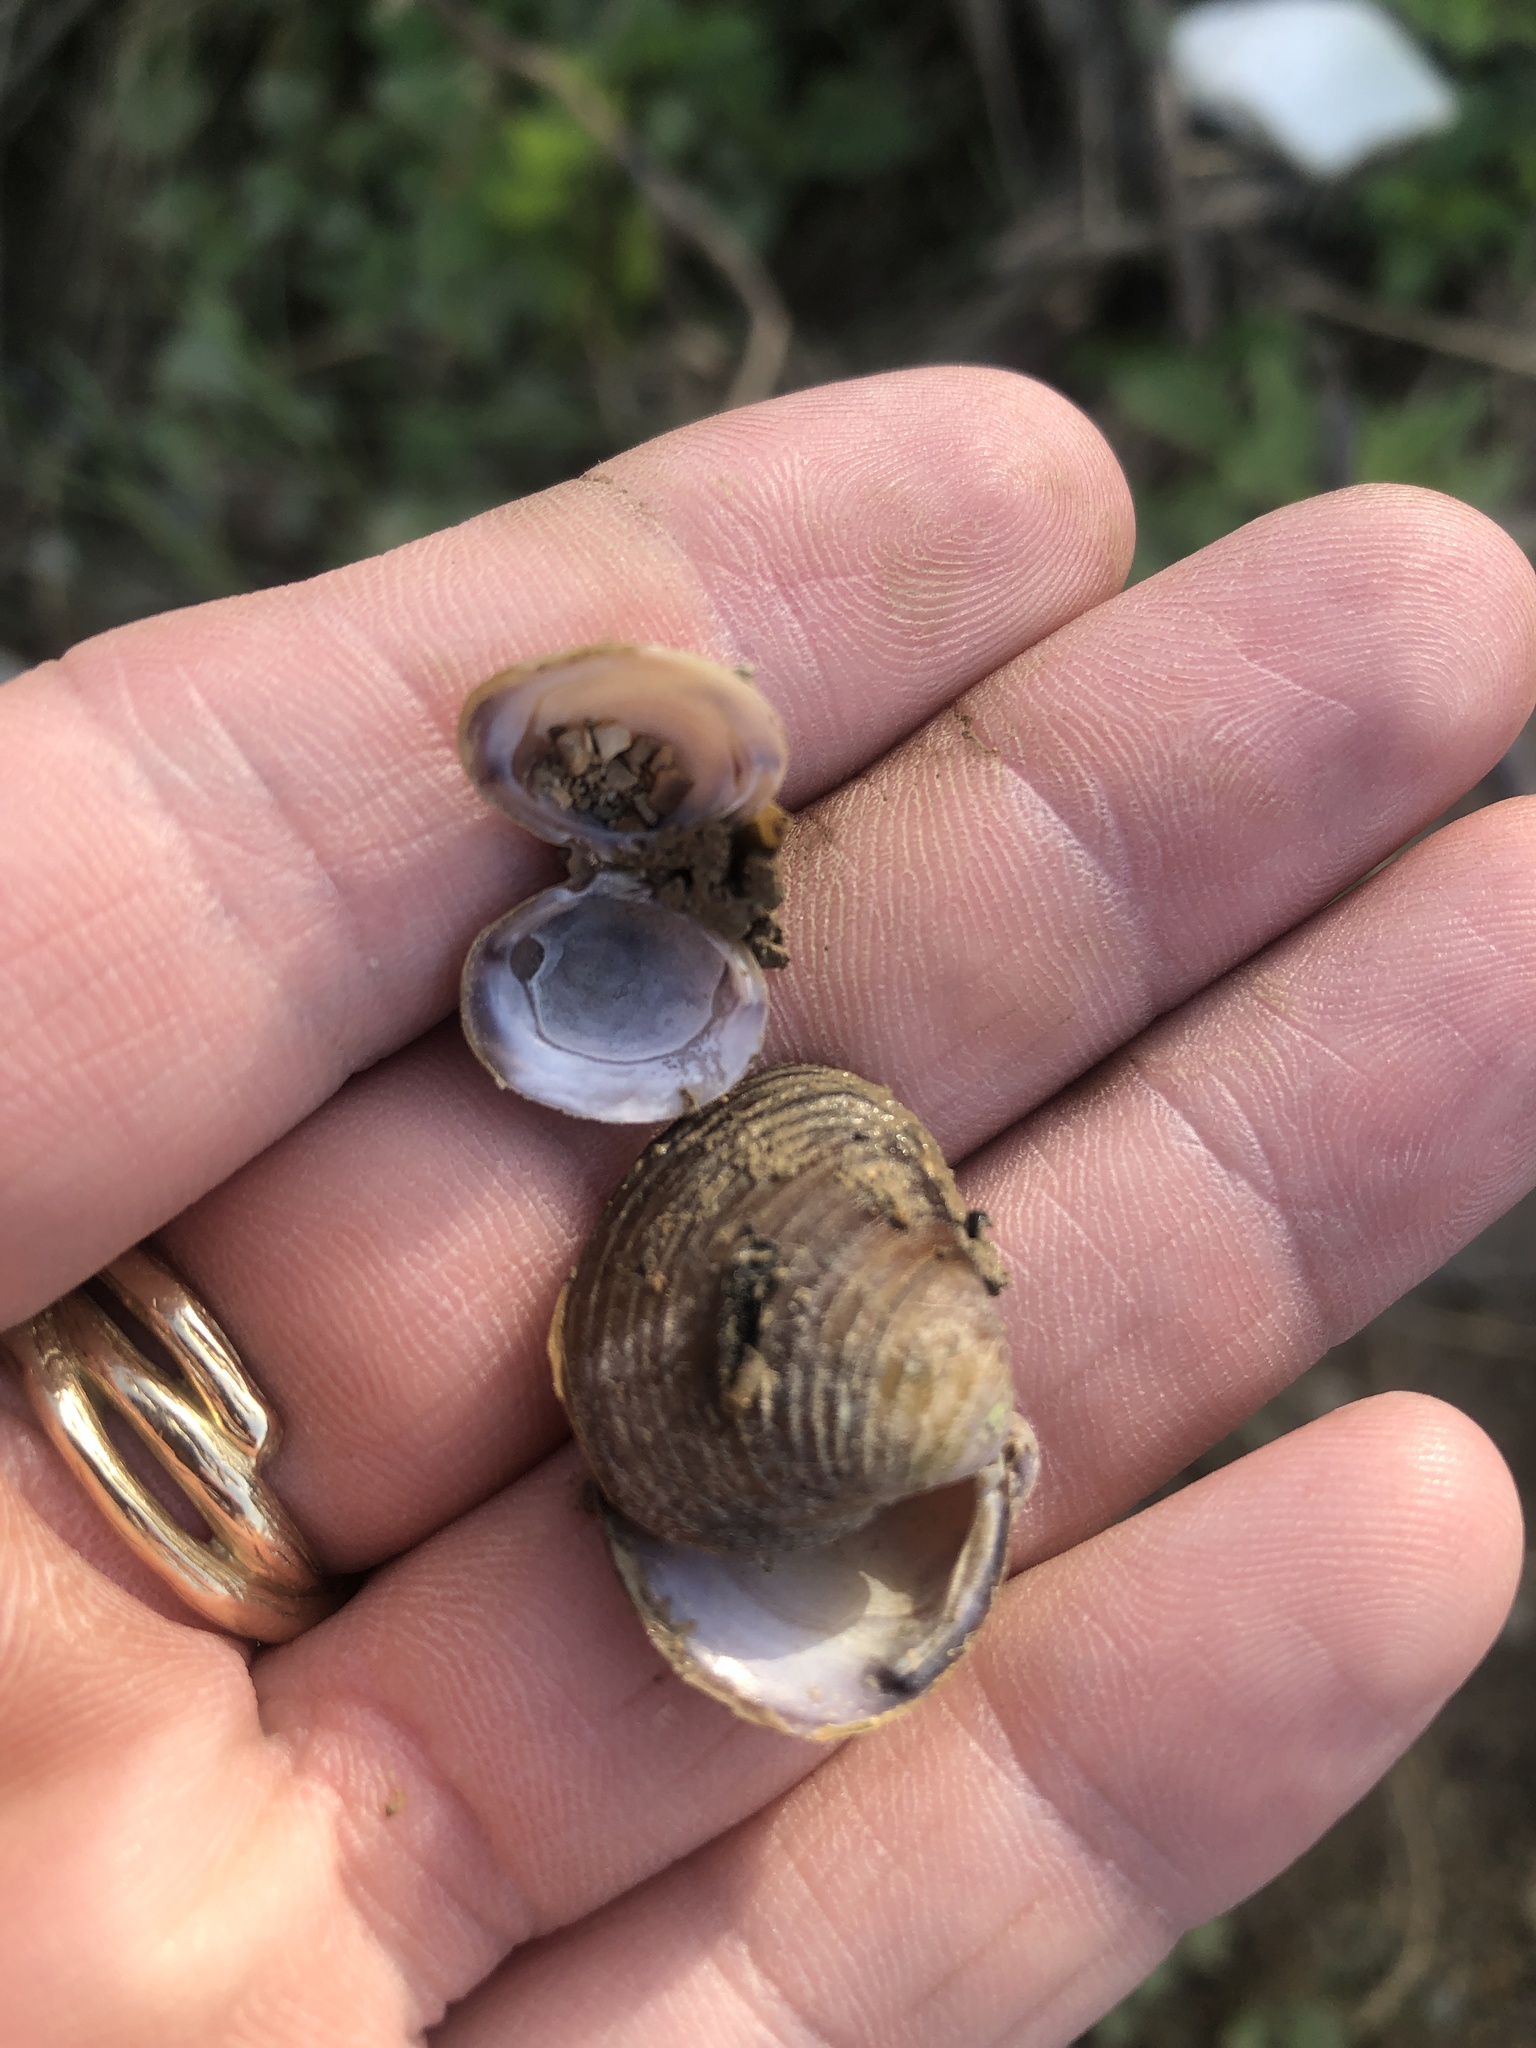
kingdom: Animalia
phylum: Mollusca
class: Bivalvia
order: Venerida
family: Cyrenidae
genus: Corbicula
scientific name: Corbicula fluminea
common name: Asian clam
